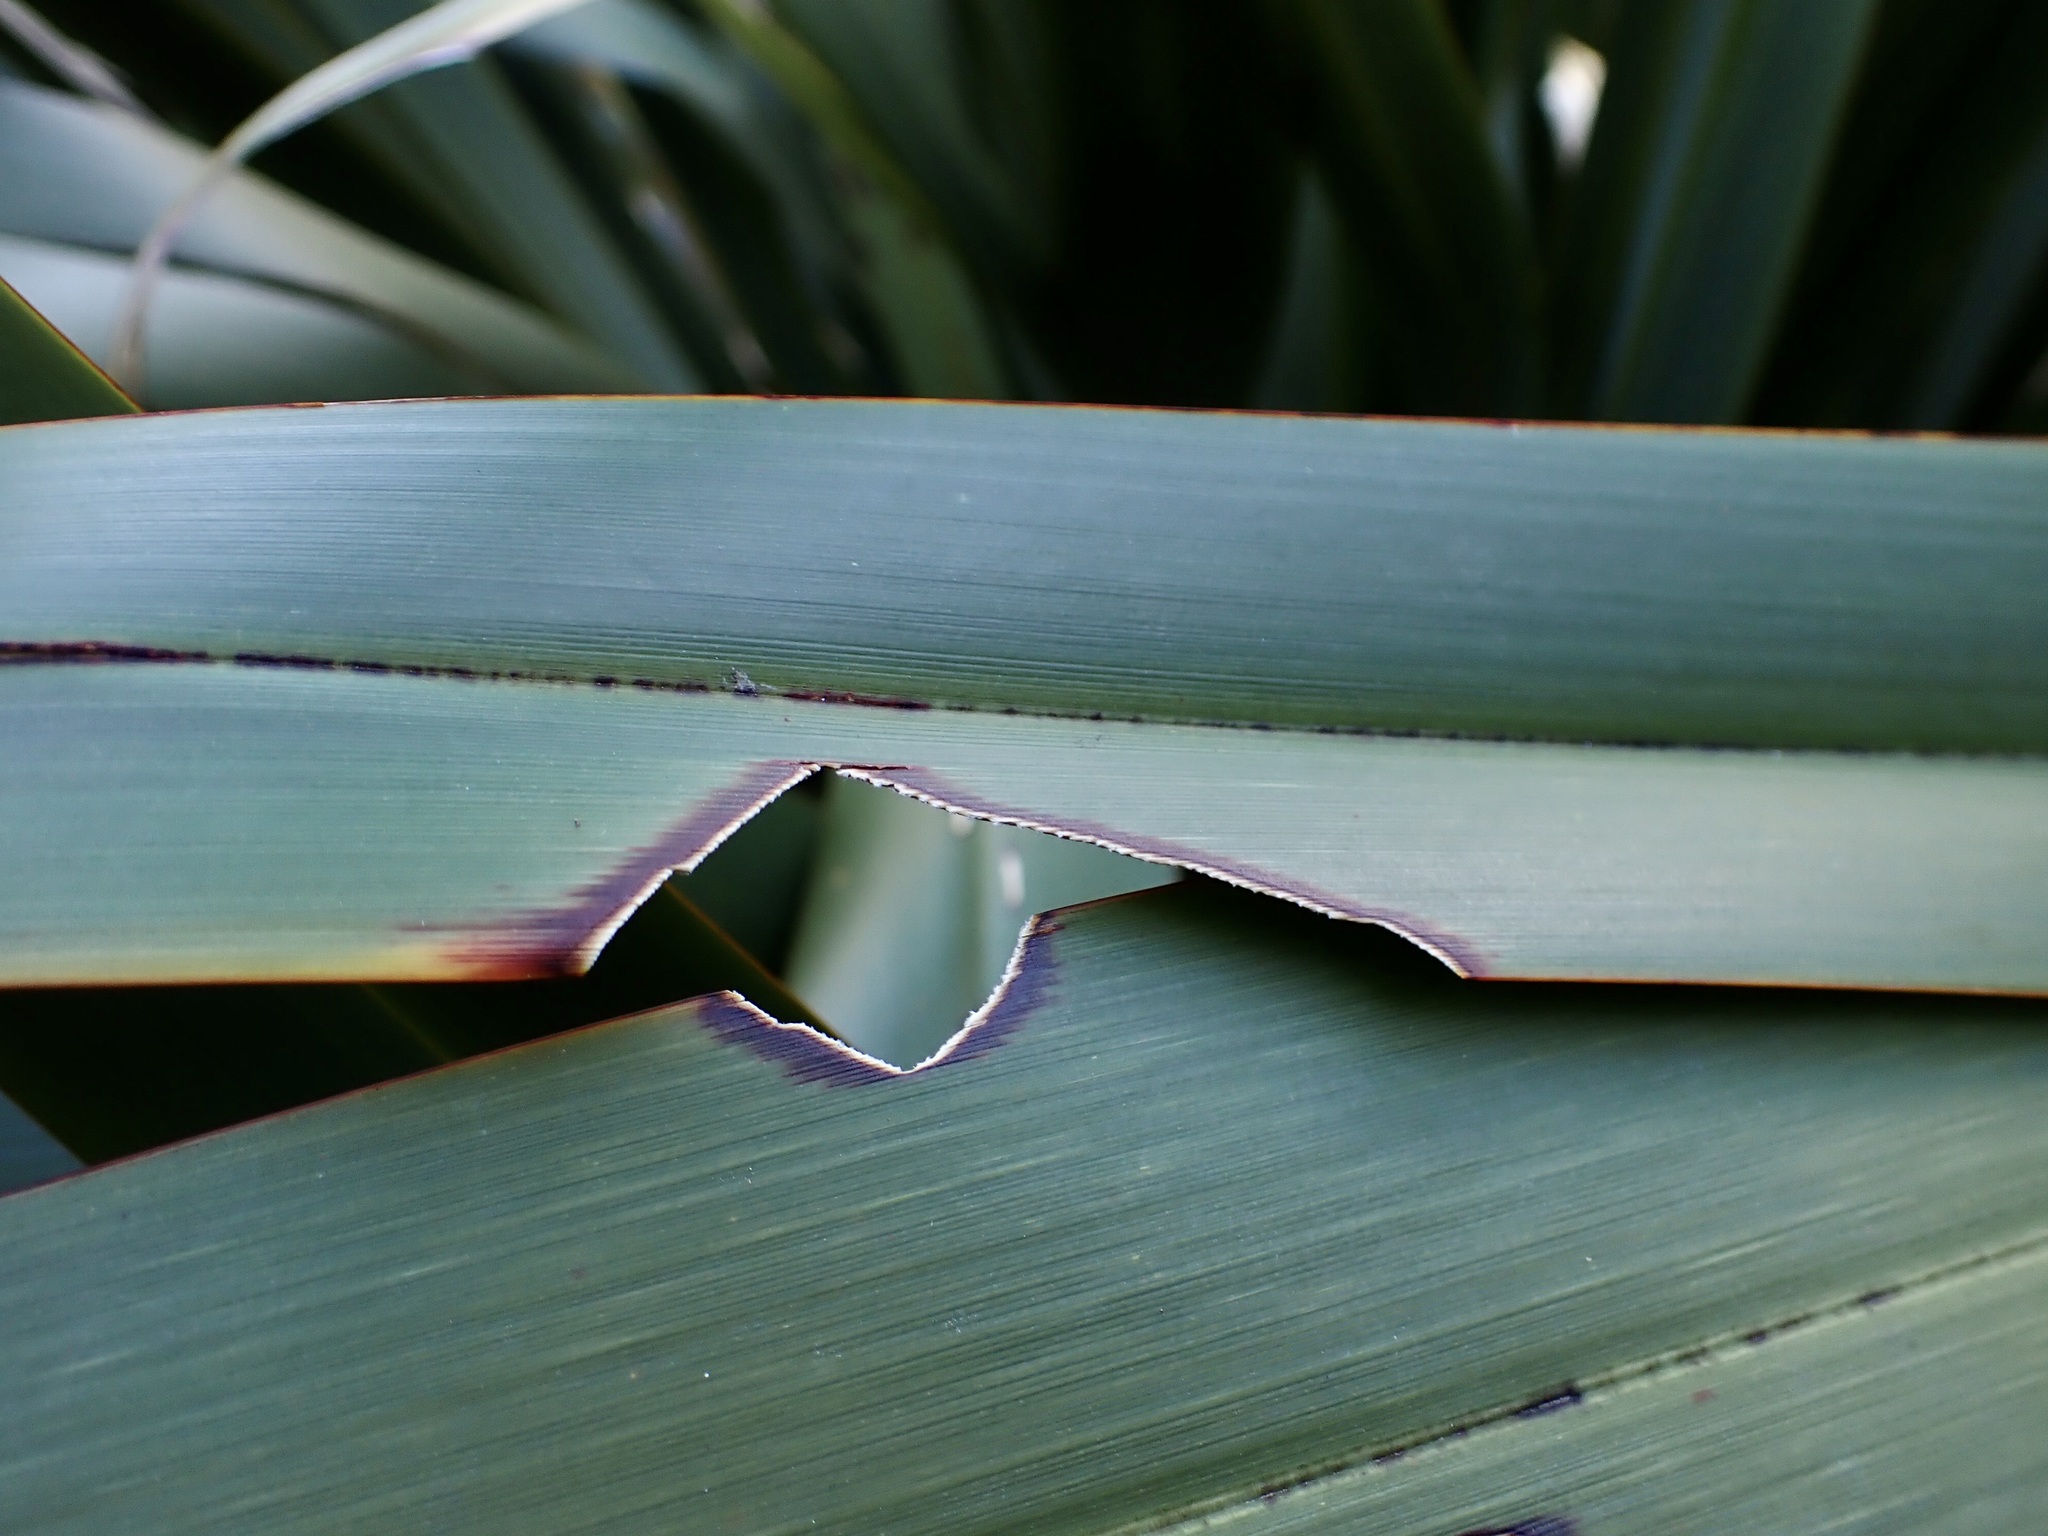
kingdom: Animalia
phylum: Arthropoda
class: Insecta
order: Lepidoptera
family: Noctuidae
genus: Ichneutica
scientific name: Ichneutica
